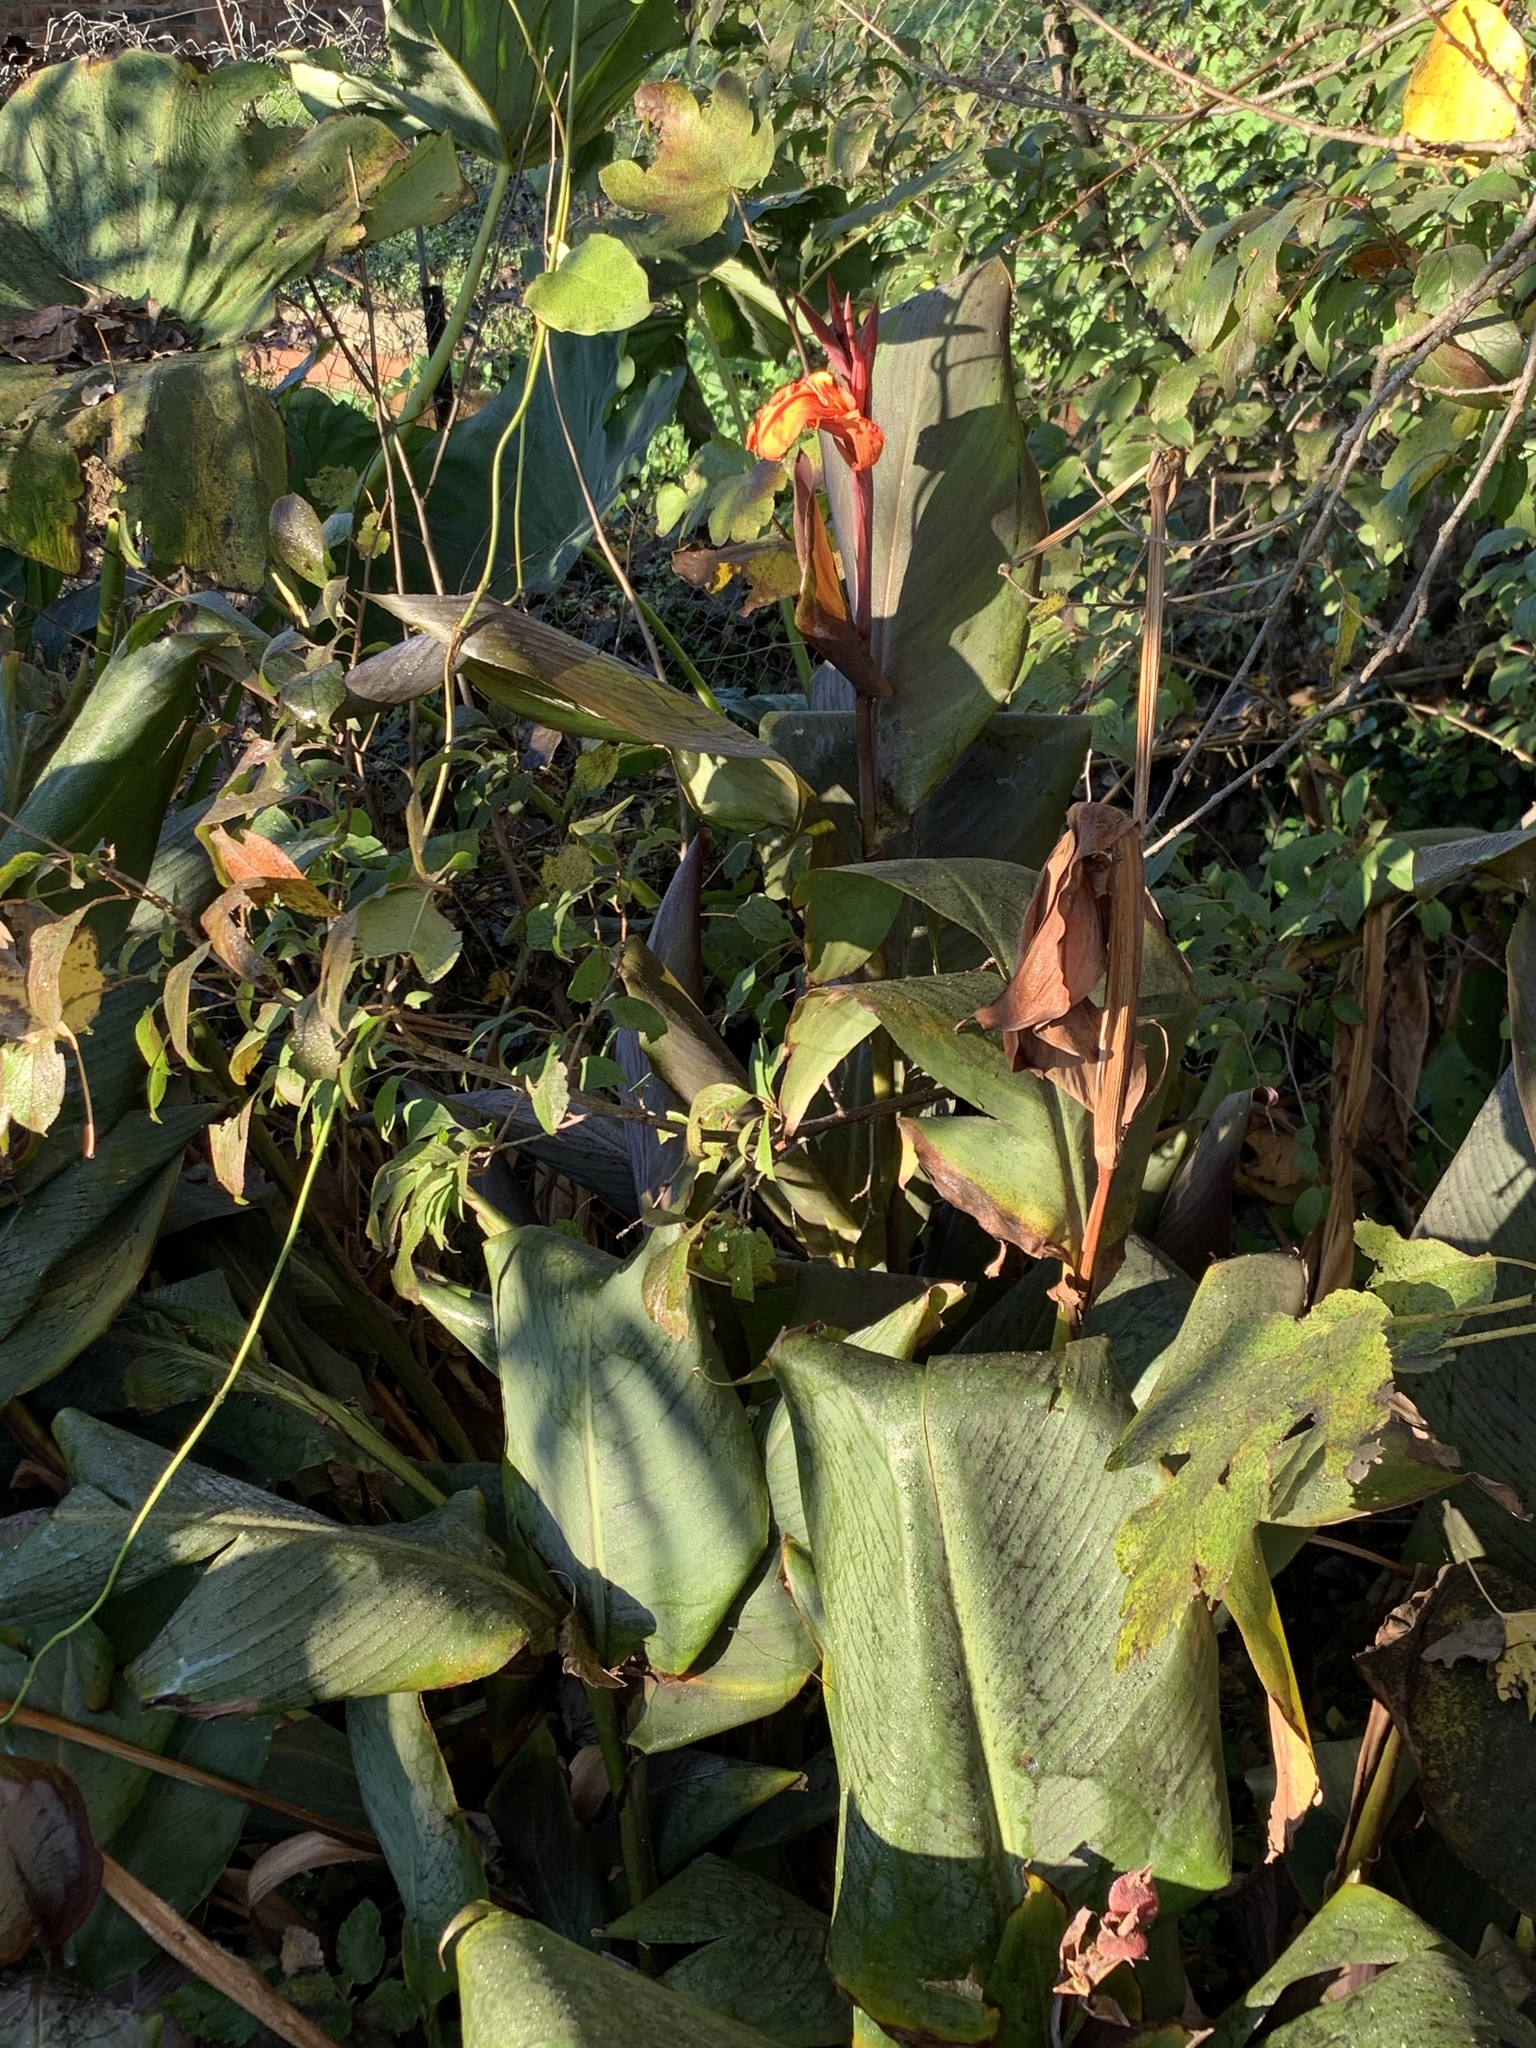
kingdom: Plantae
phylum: Tracheophyta
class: Liliopsida
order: Zingiberales
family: Cannaceae
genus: Canna
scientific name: Canna hybrida
